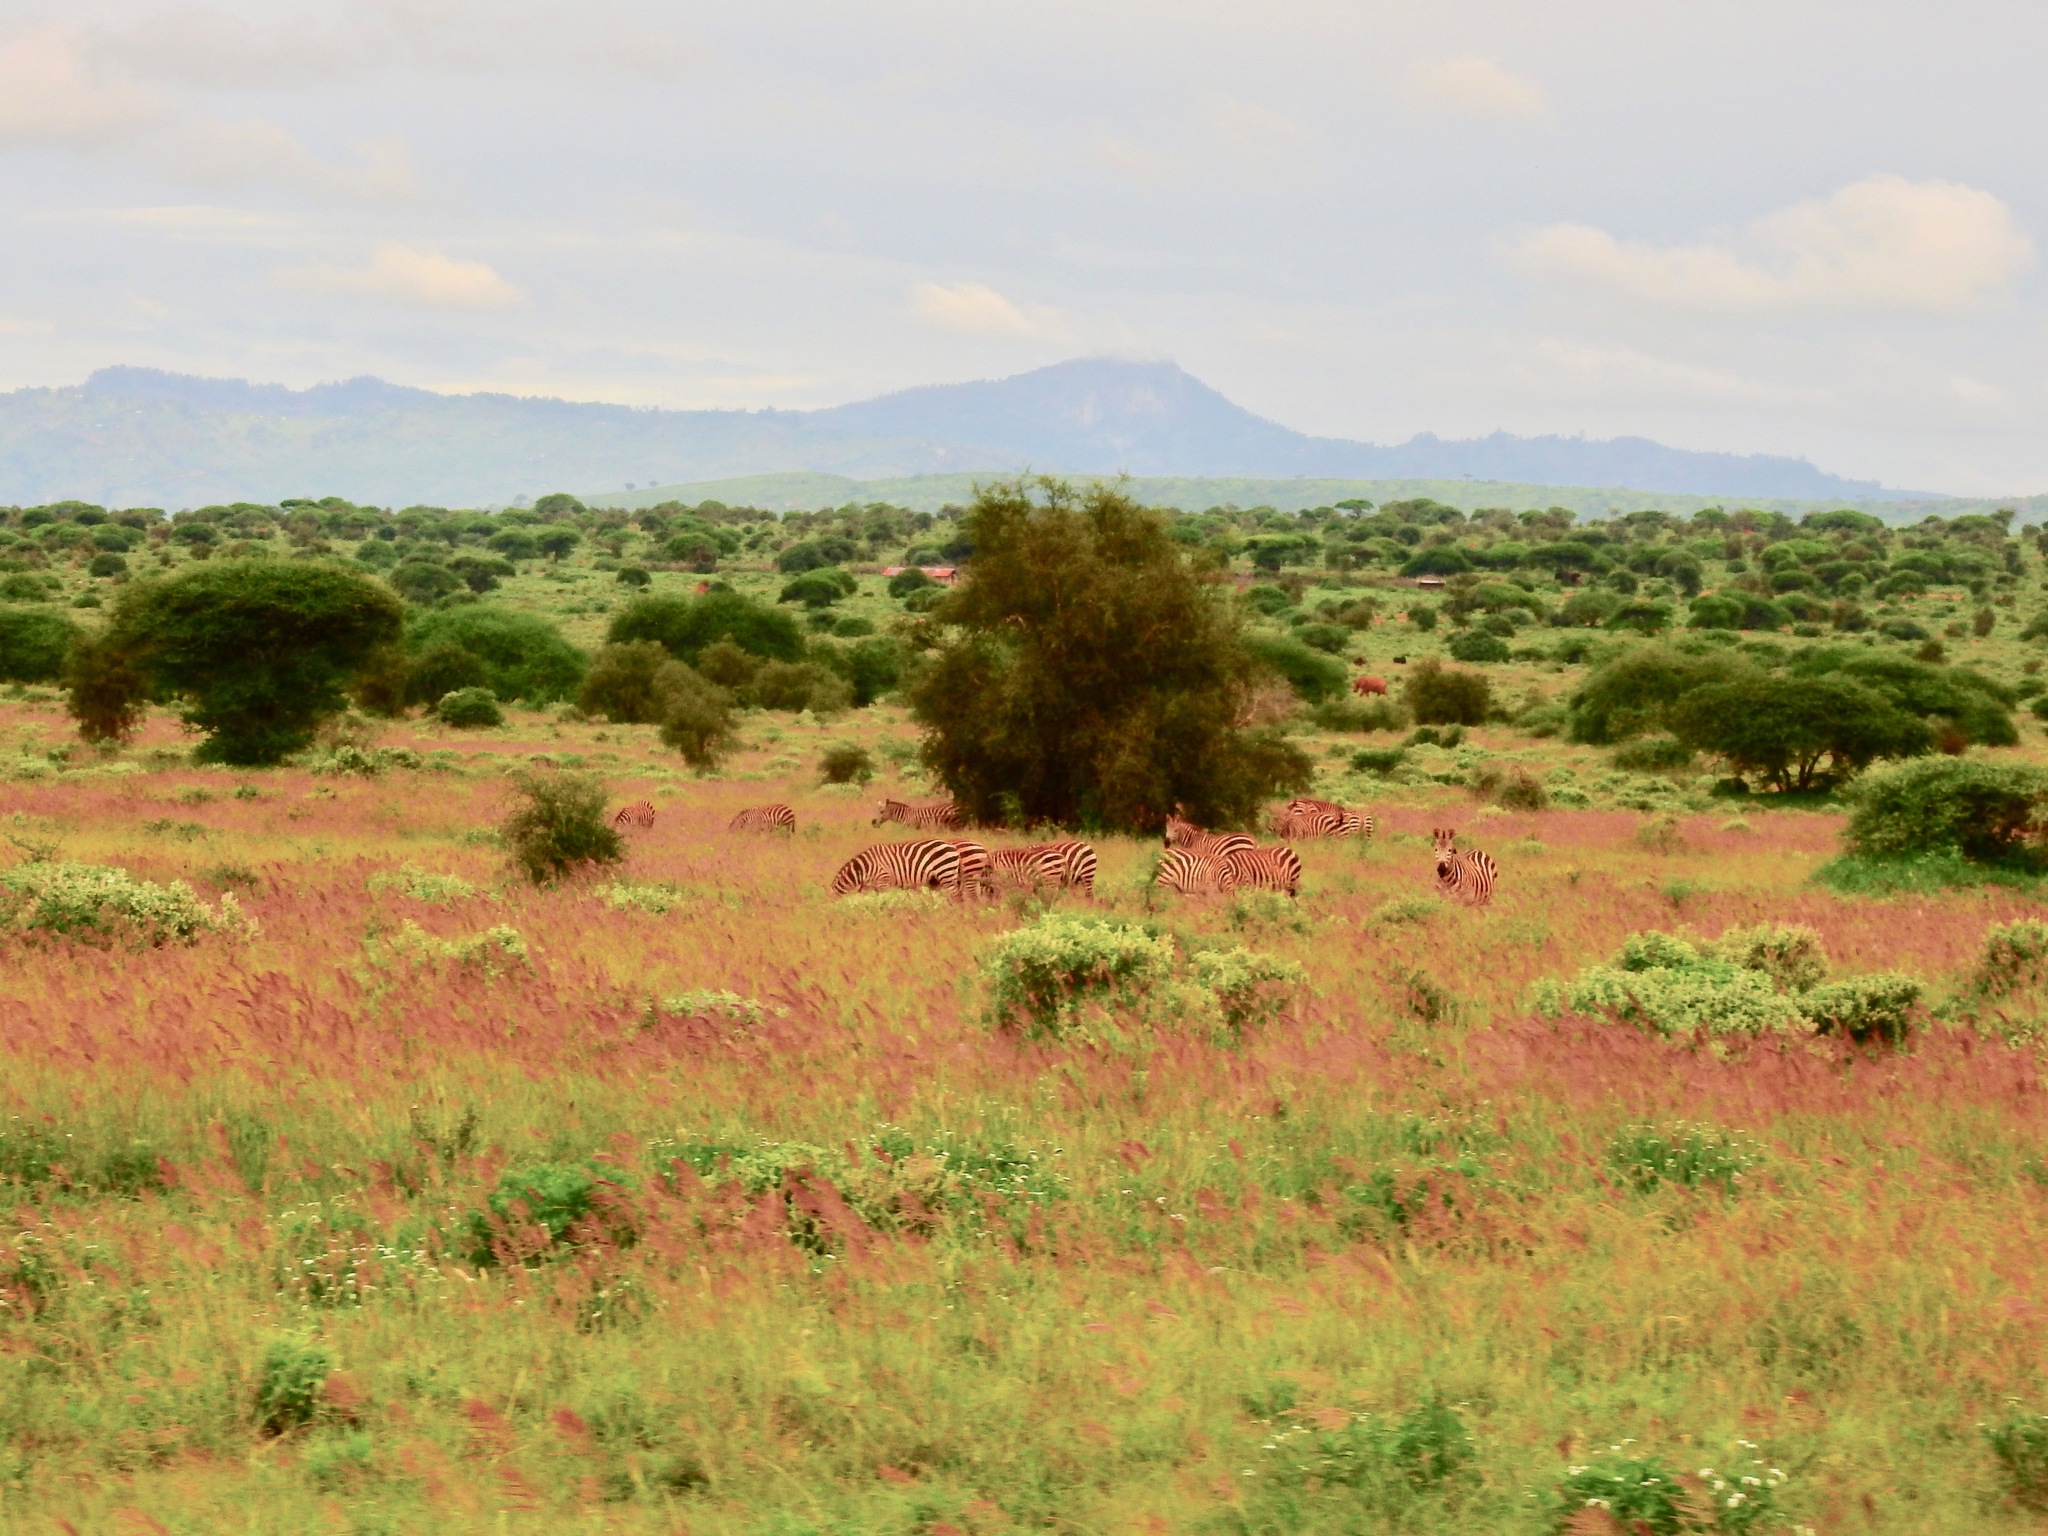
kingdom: Animalia
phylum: Chordata
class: Mammalia
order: Perissodactyla
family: Equidae
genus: Equus
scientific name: Equus quagga
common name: Plains zebra
